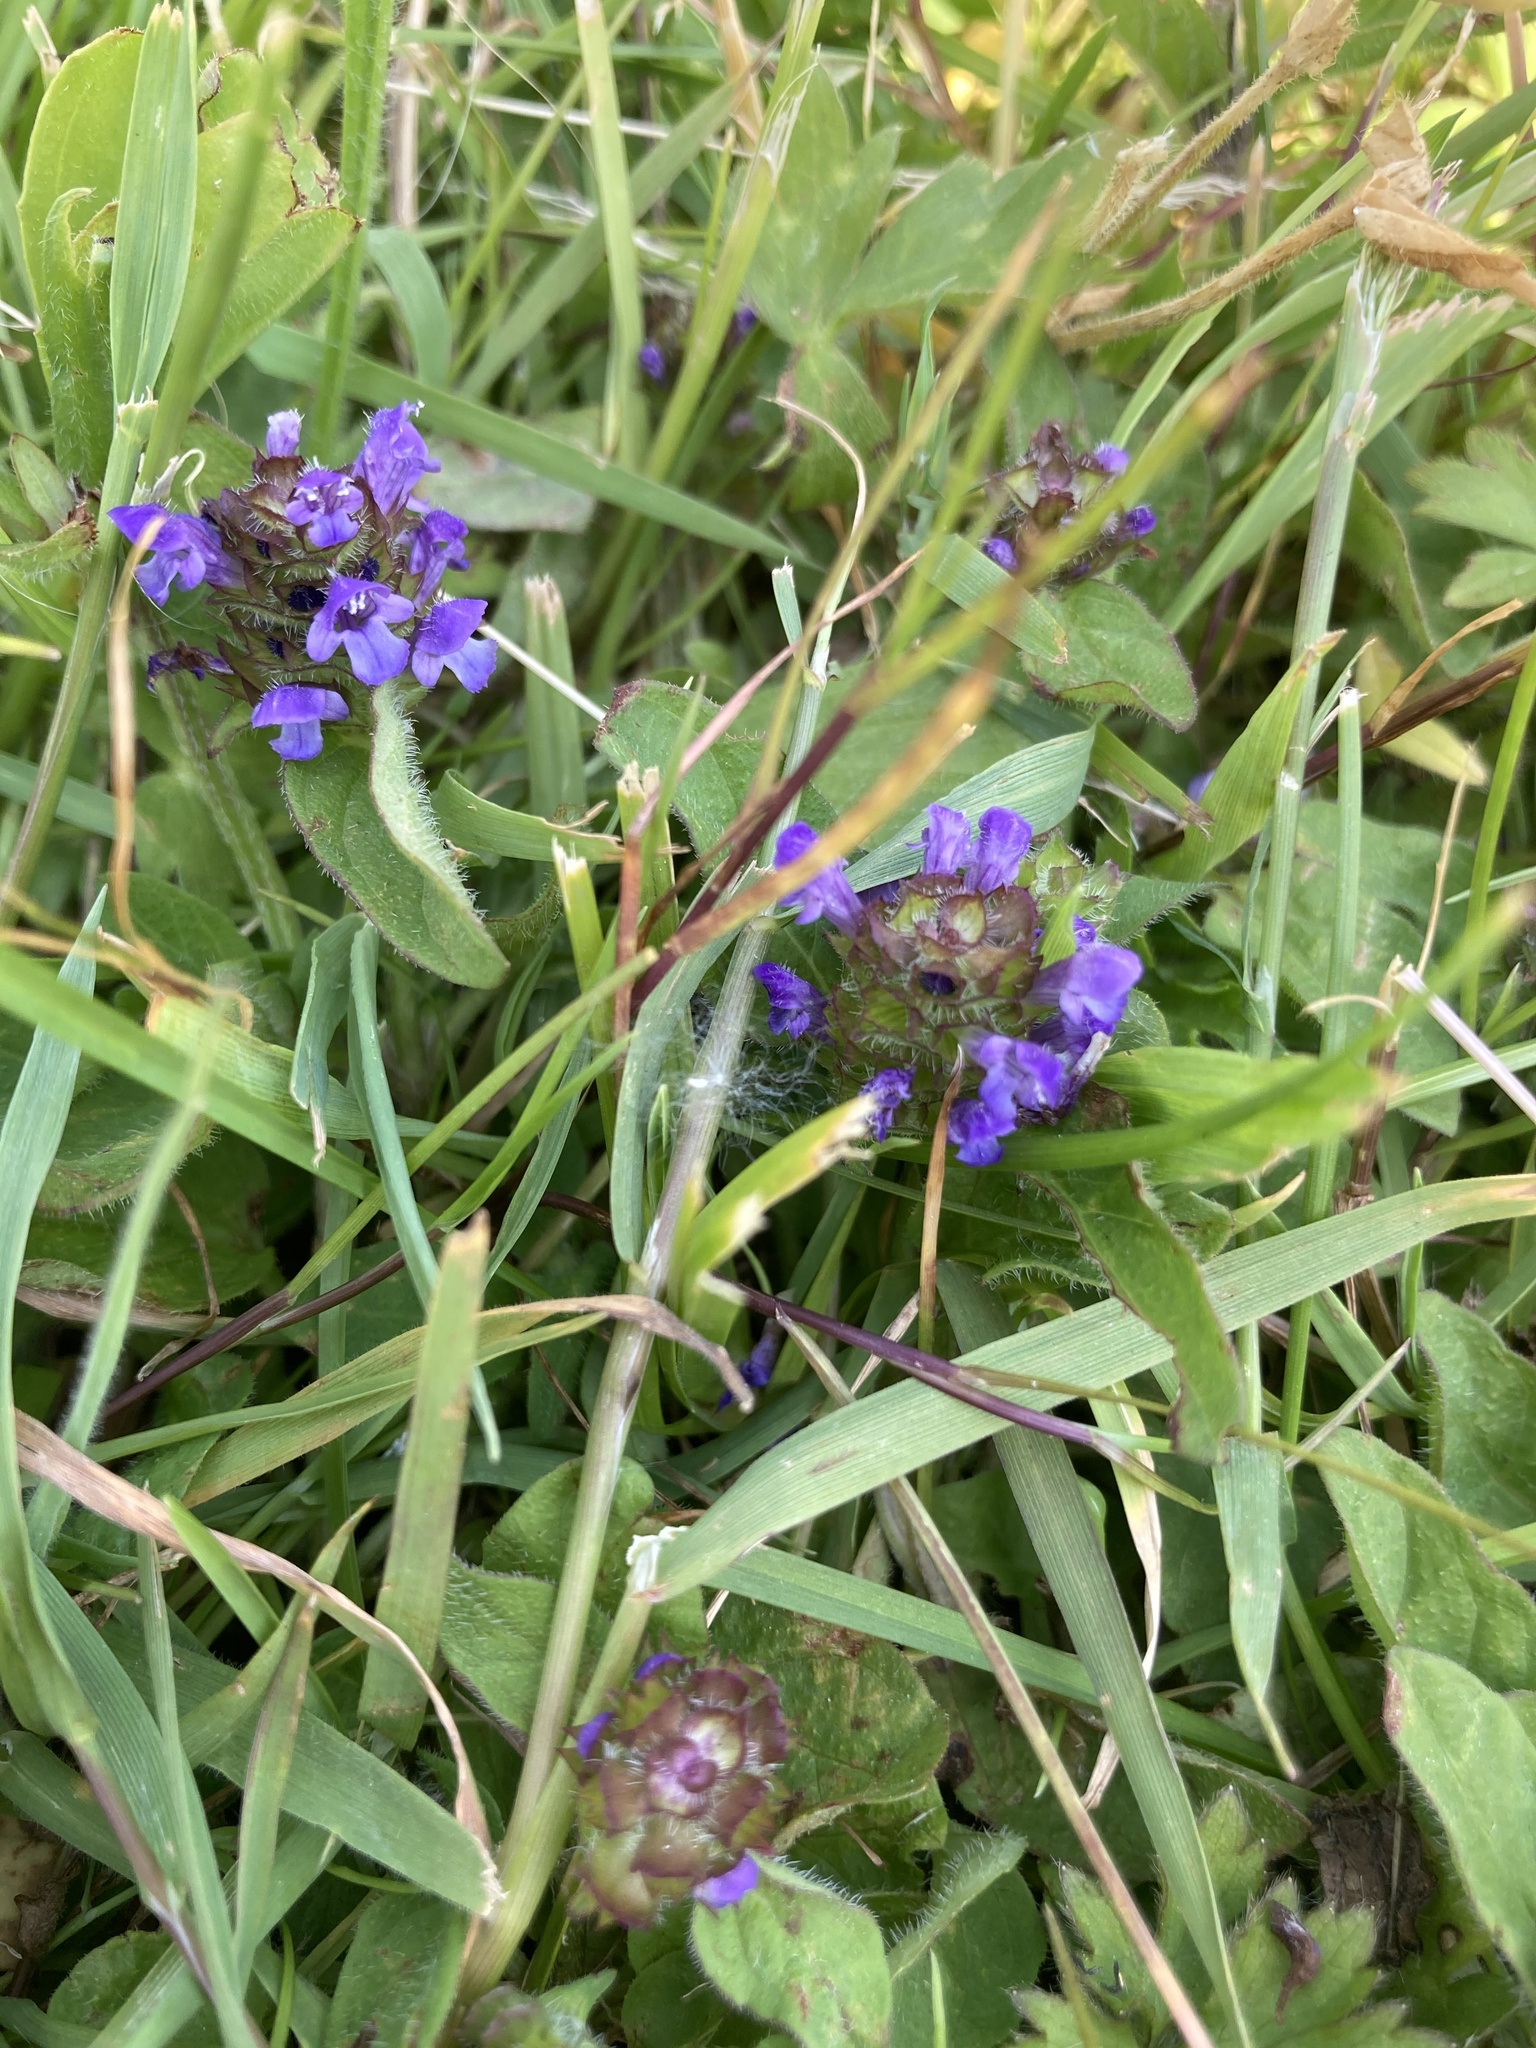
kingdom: Plantae
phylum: Tracheophyta
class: Magnoliopsida
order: Lamiales
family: Lamiaceae
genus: Prunella
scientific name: Prunella vulgaris
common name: Heal-all
